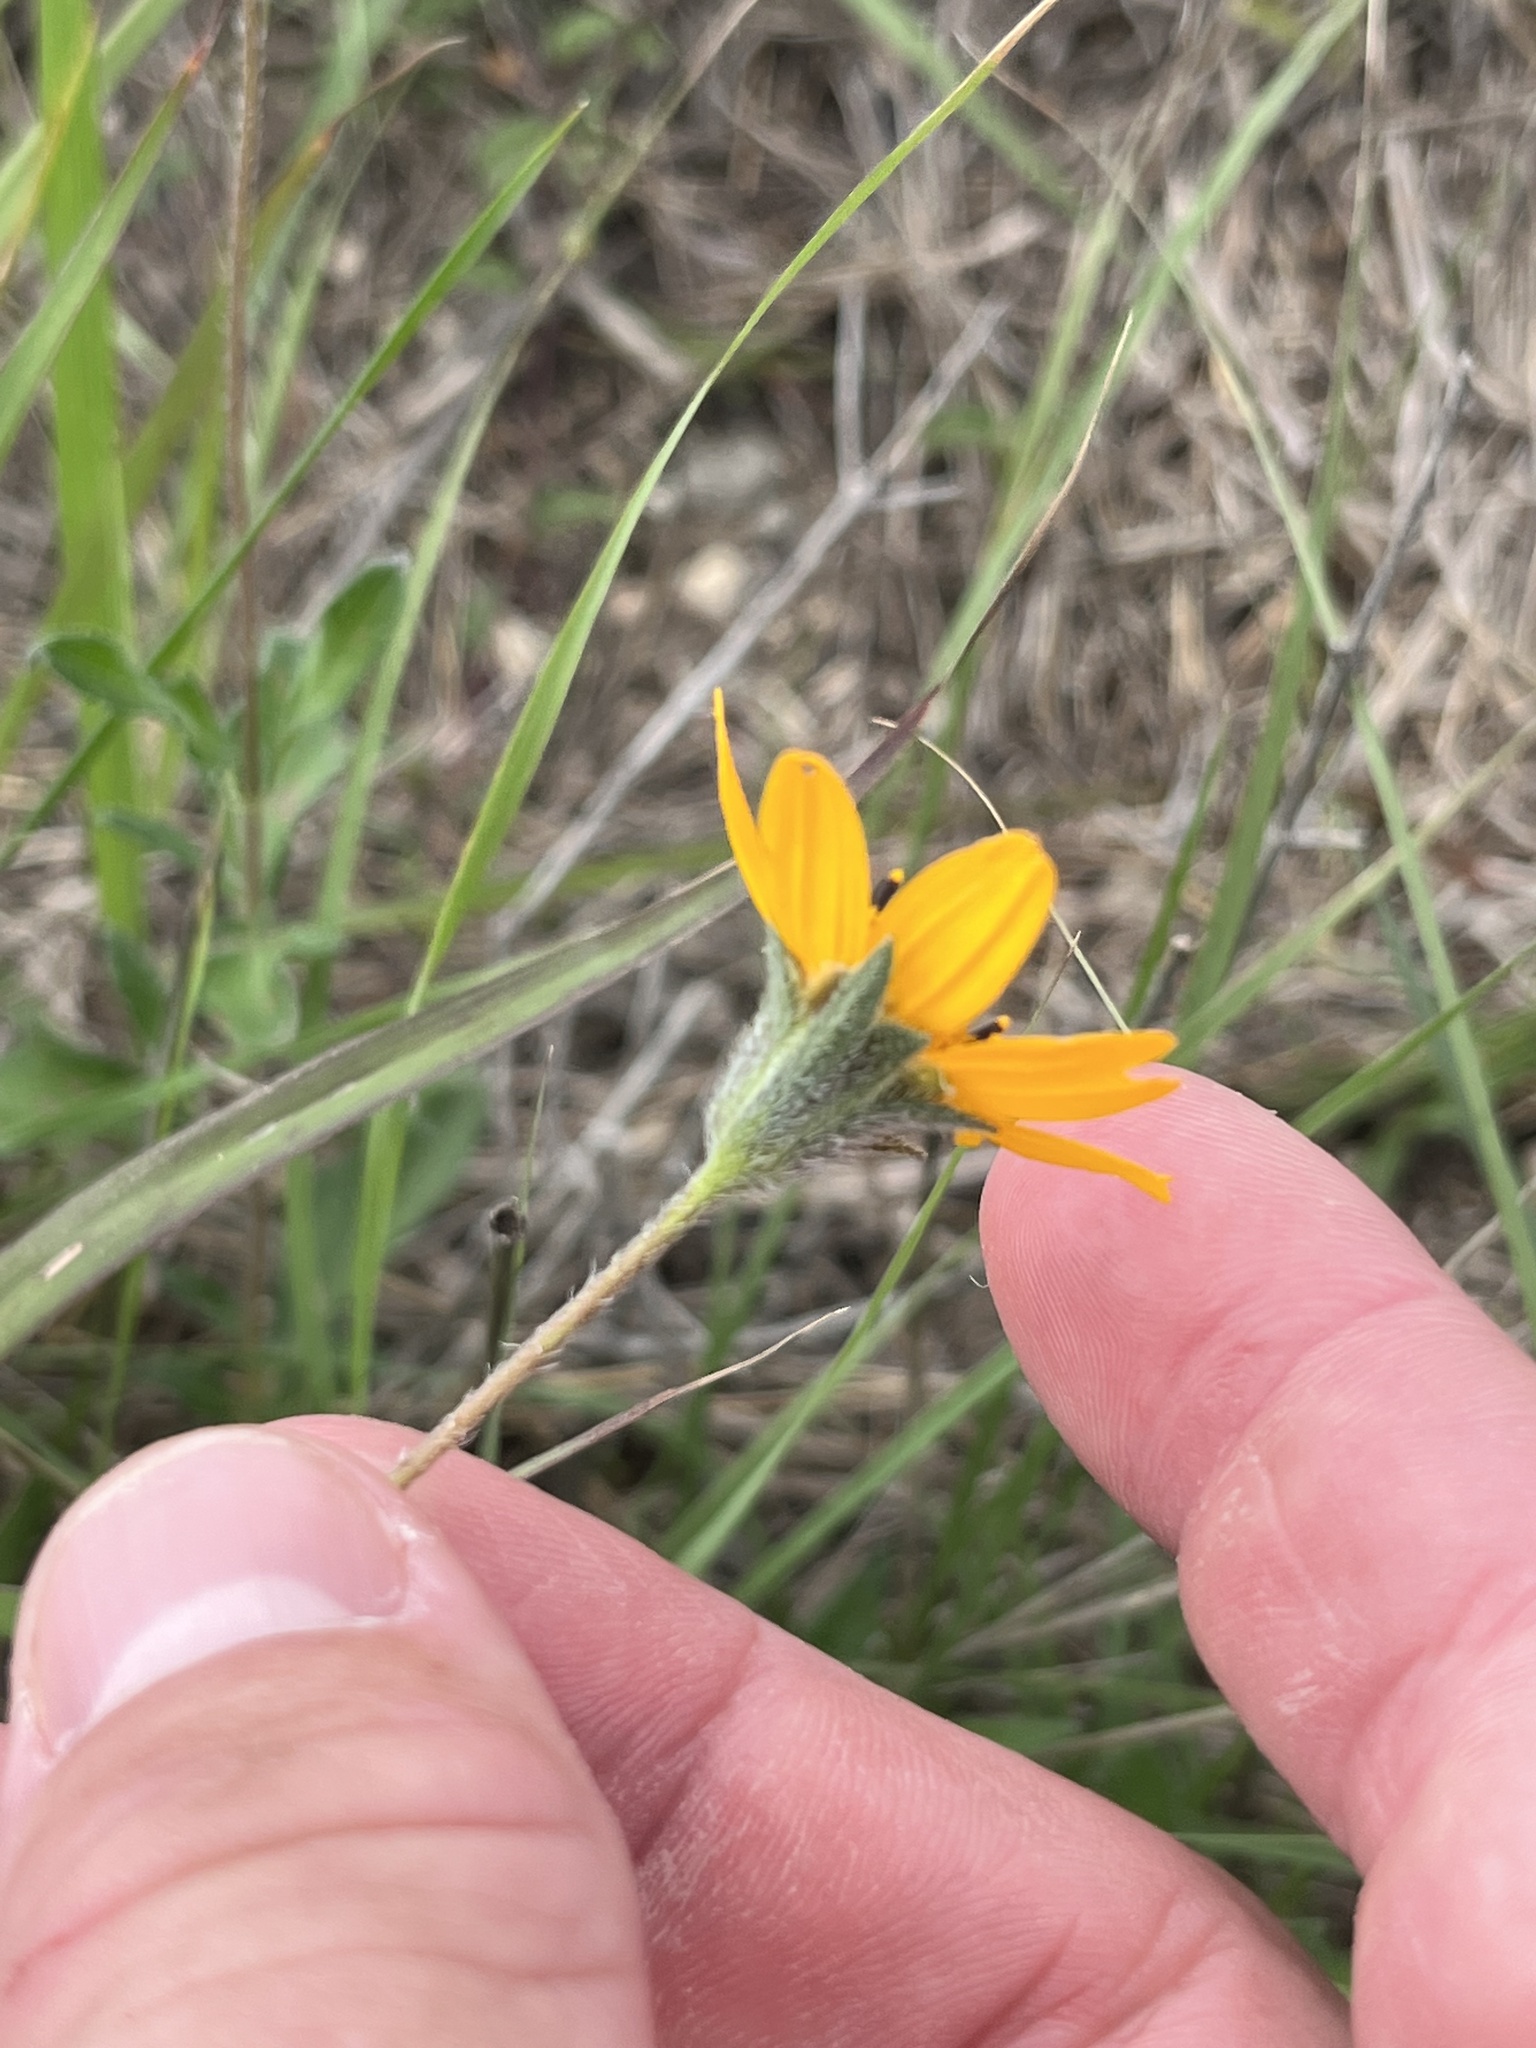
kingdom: Plantae
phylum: Tracheophyta
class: Magnoliopsida
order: Asterales
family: Asteraceae
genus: Wedelia
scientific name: Wedelia acapulcensis
